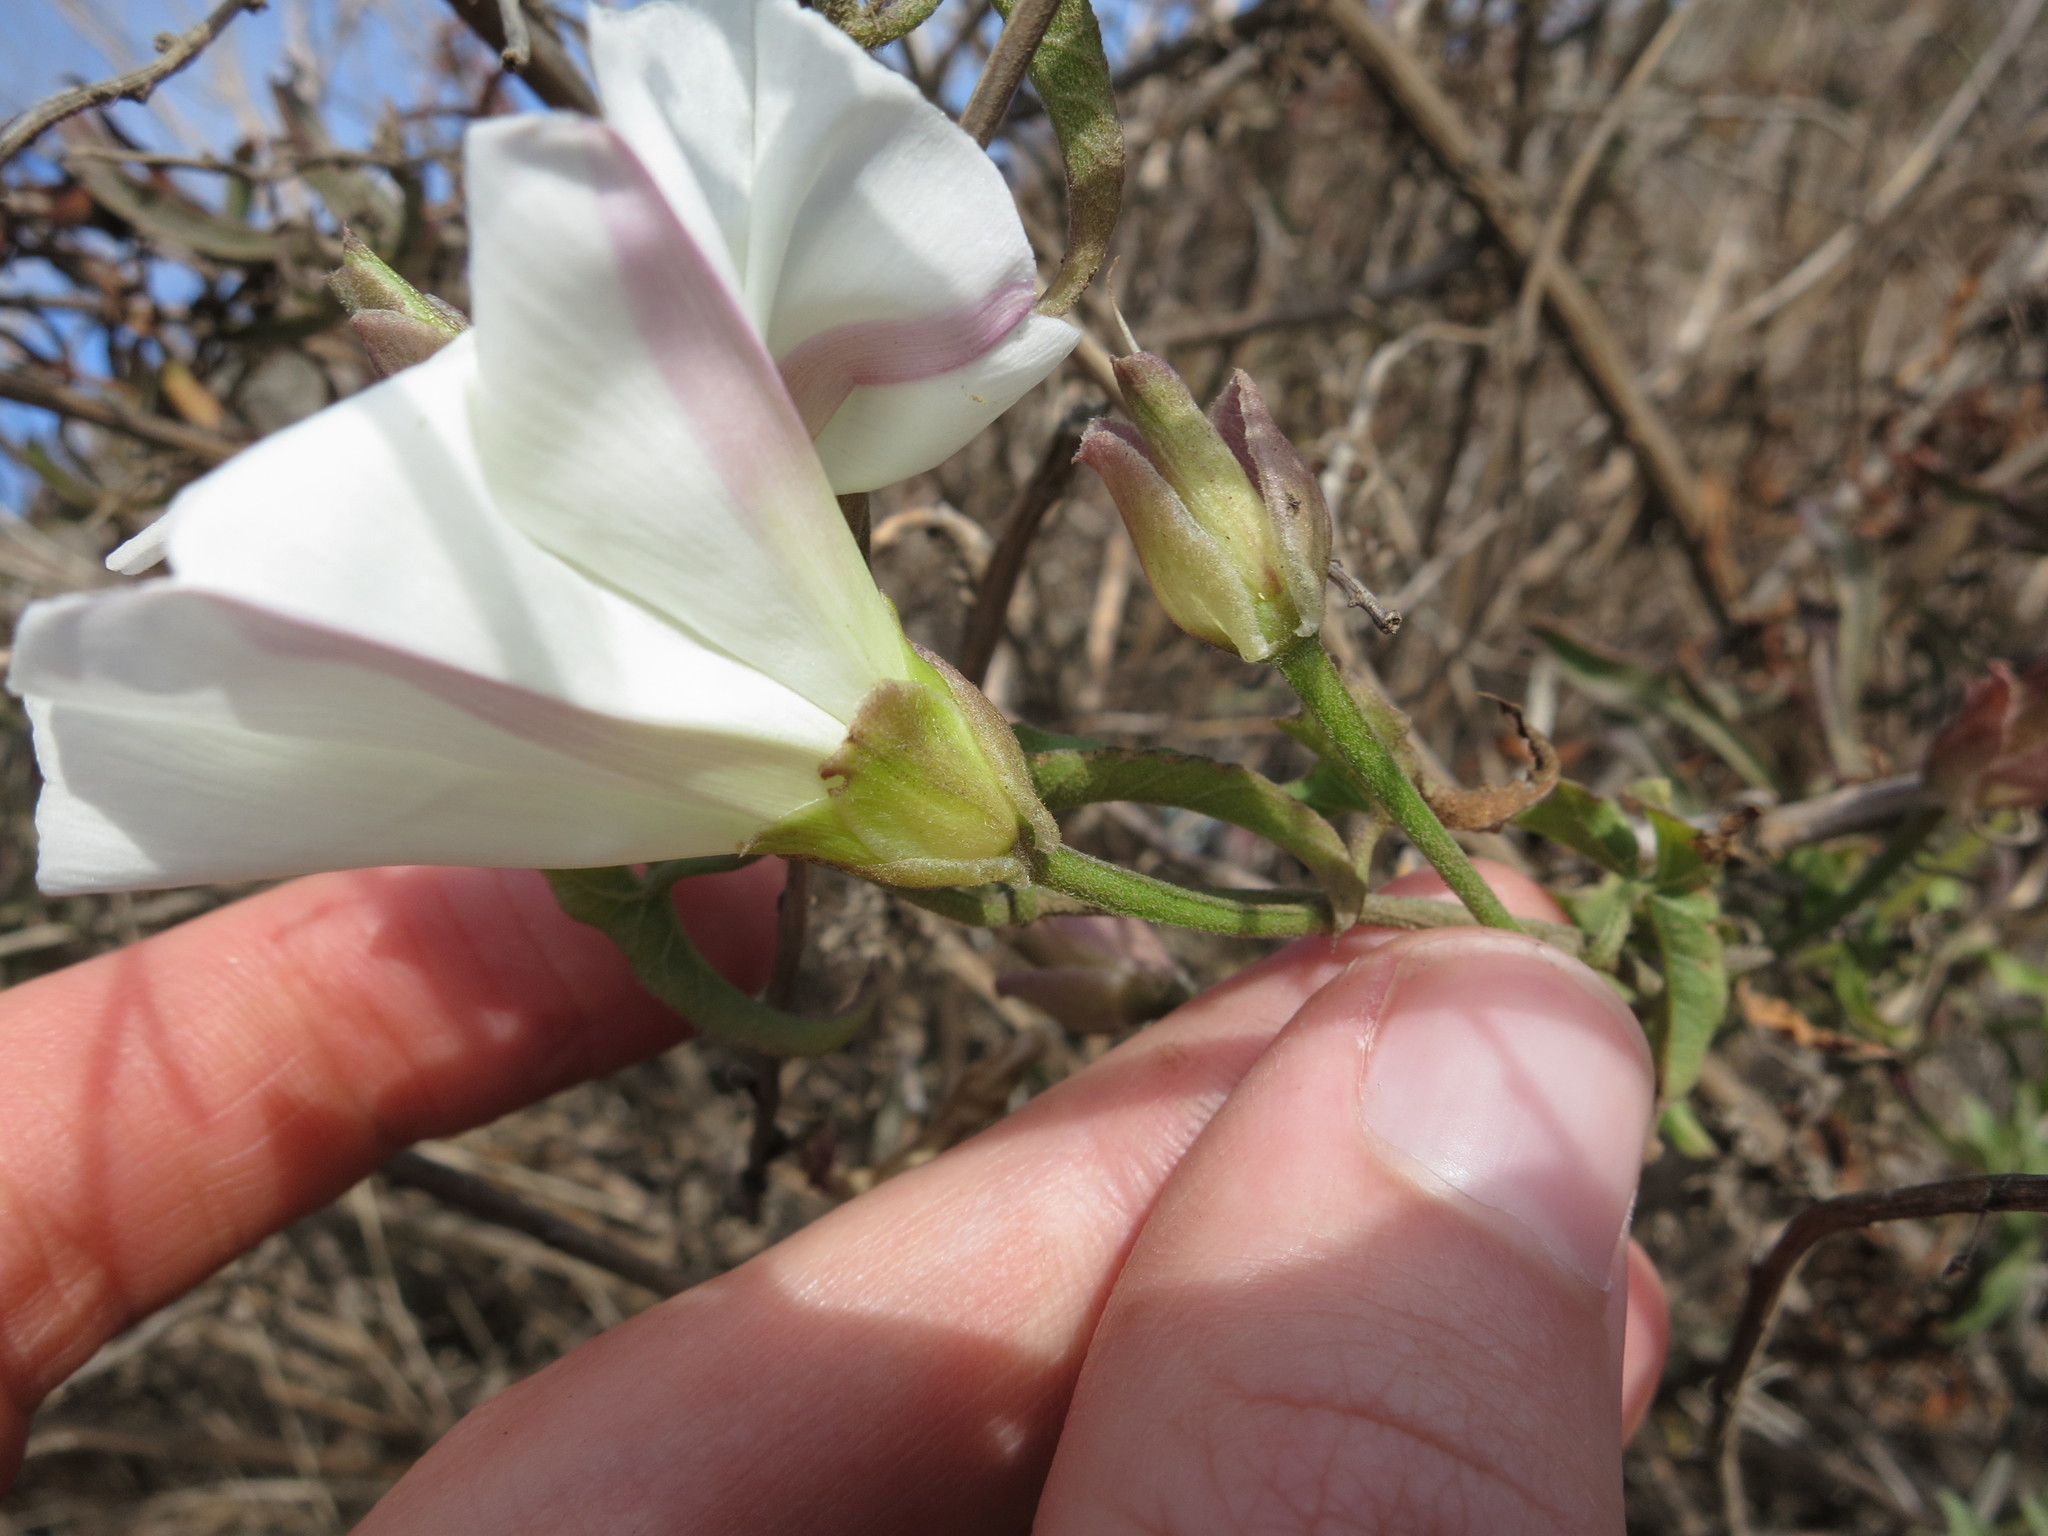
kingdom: Plantae
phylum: Tracheophyta
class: Magnoliopsida
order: Solanales
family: Convolvulaceae
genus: Calystegia
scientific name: Calystegia macrostegia
